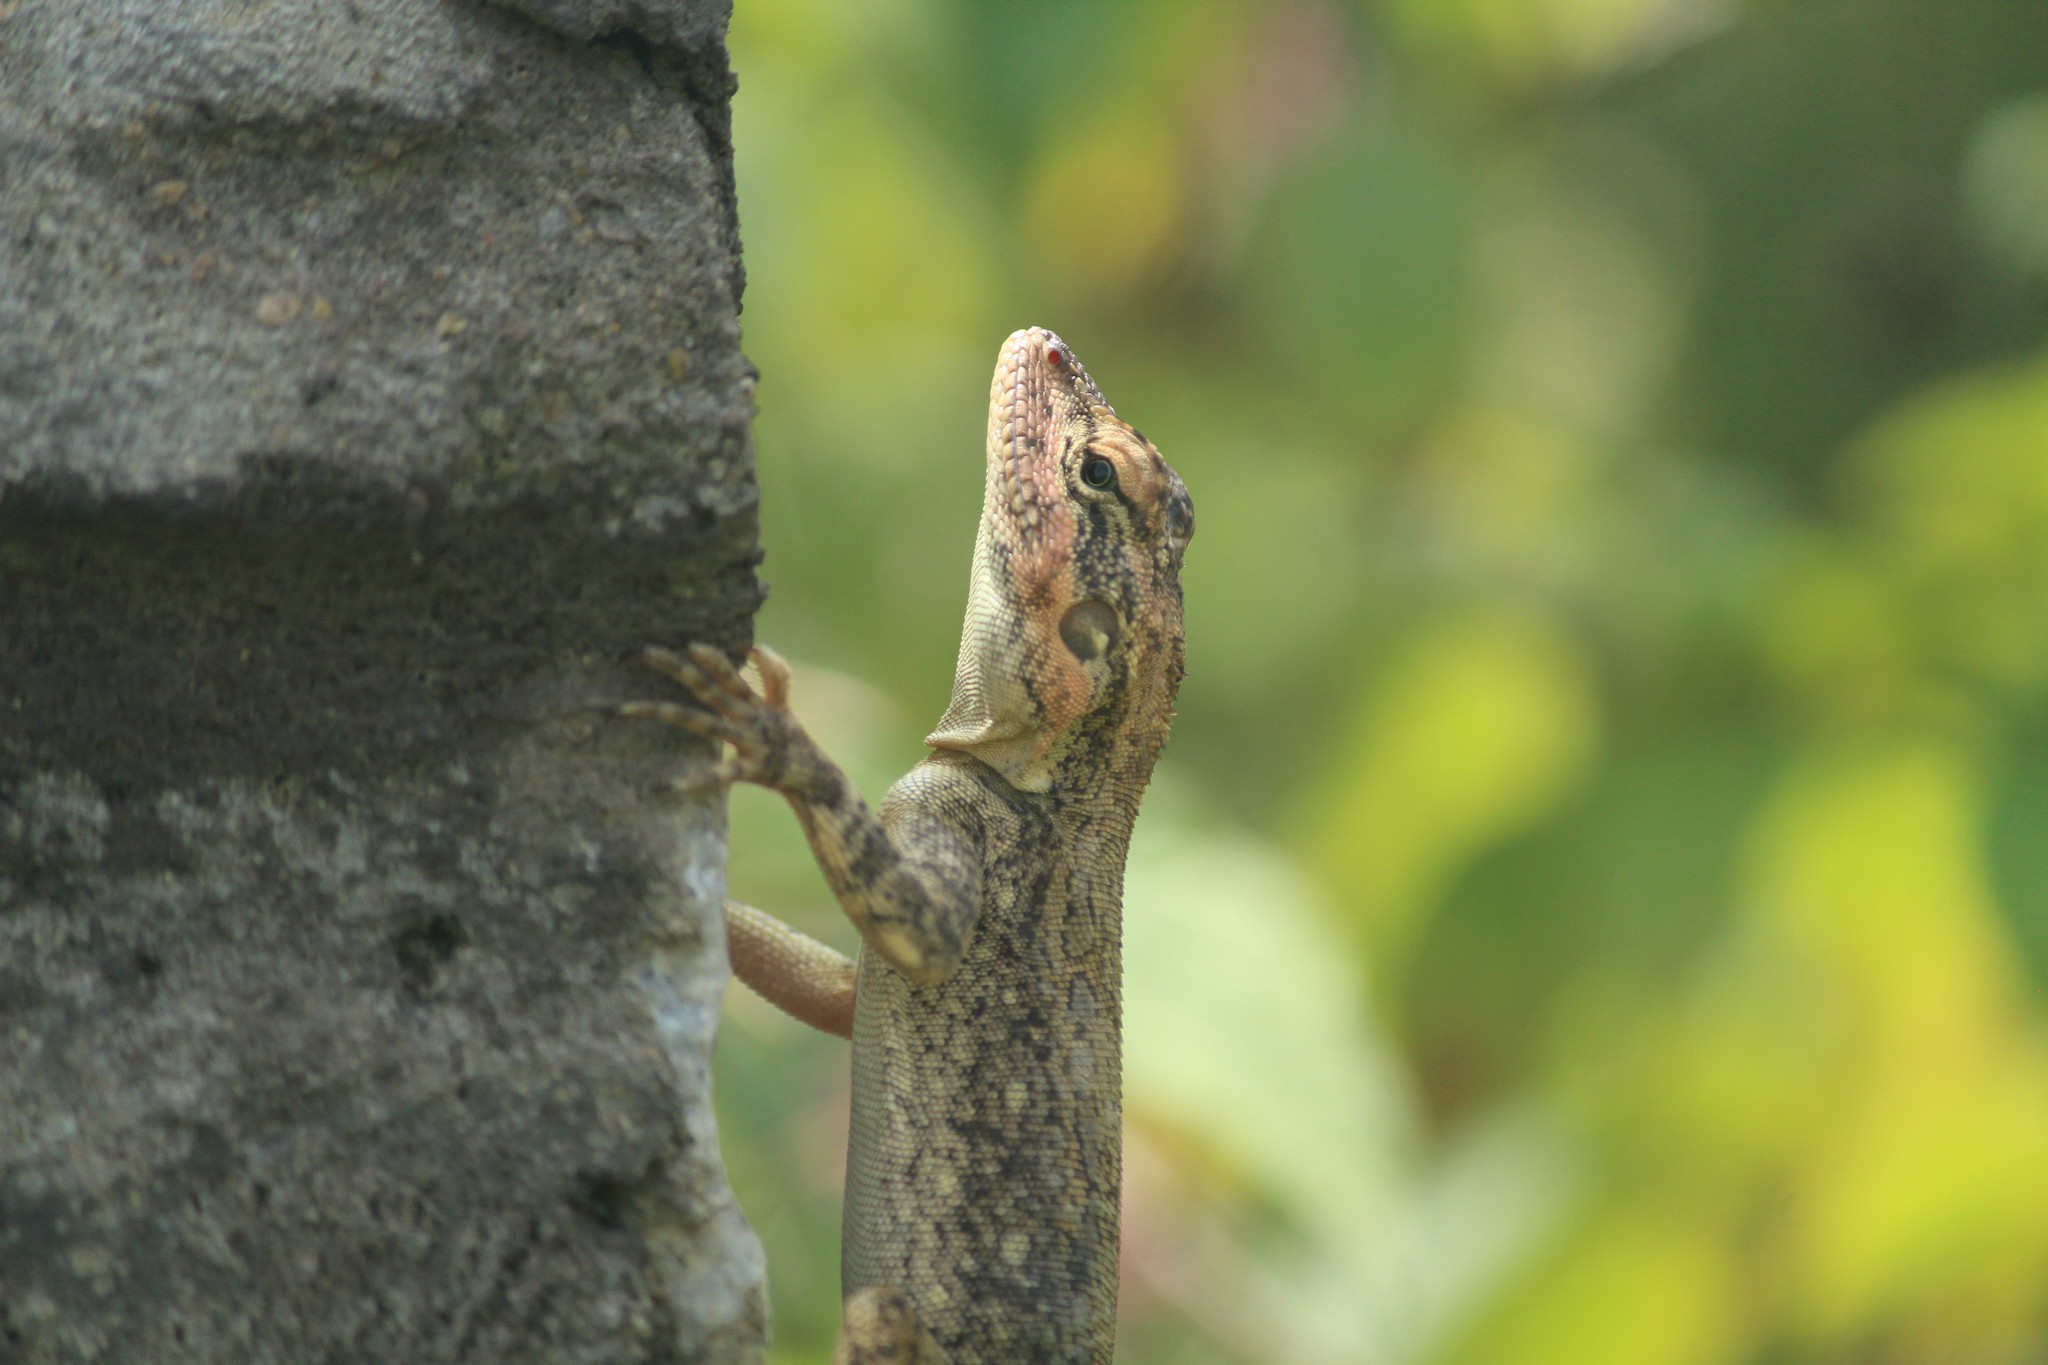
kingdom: Animalia
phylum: Chordata
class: Squamata
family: Agamidae
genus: Psammophilus
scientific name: Psammophilus dorsalis
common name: South indian rock agama
